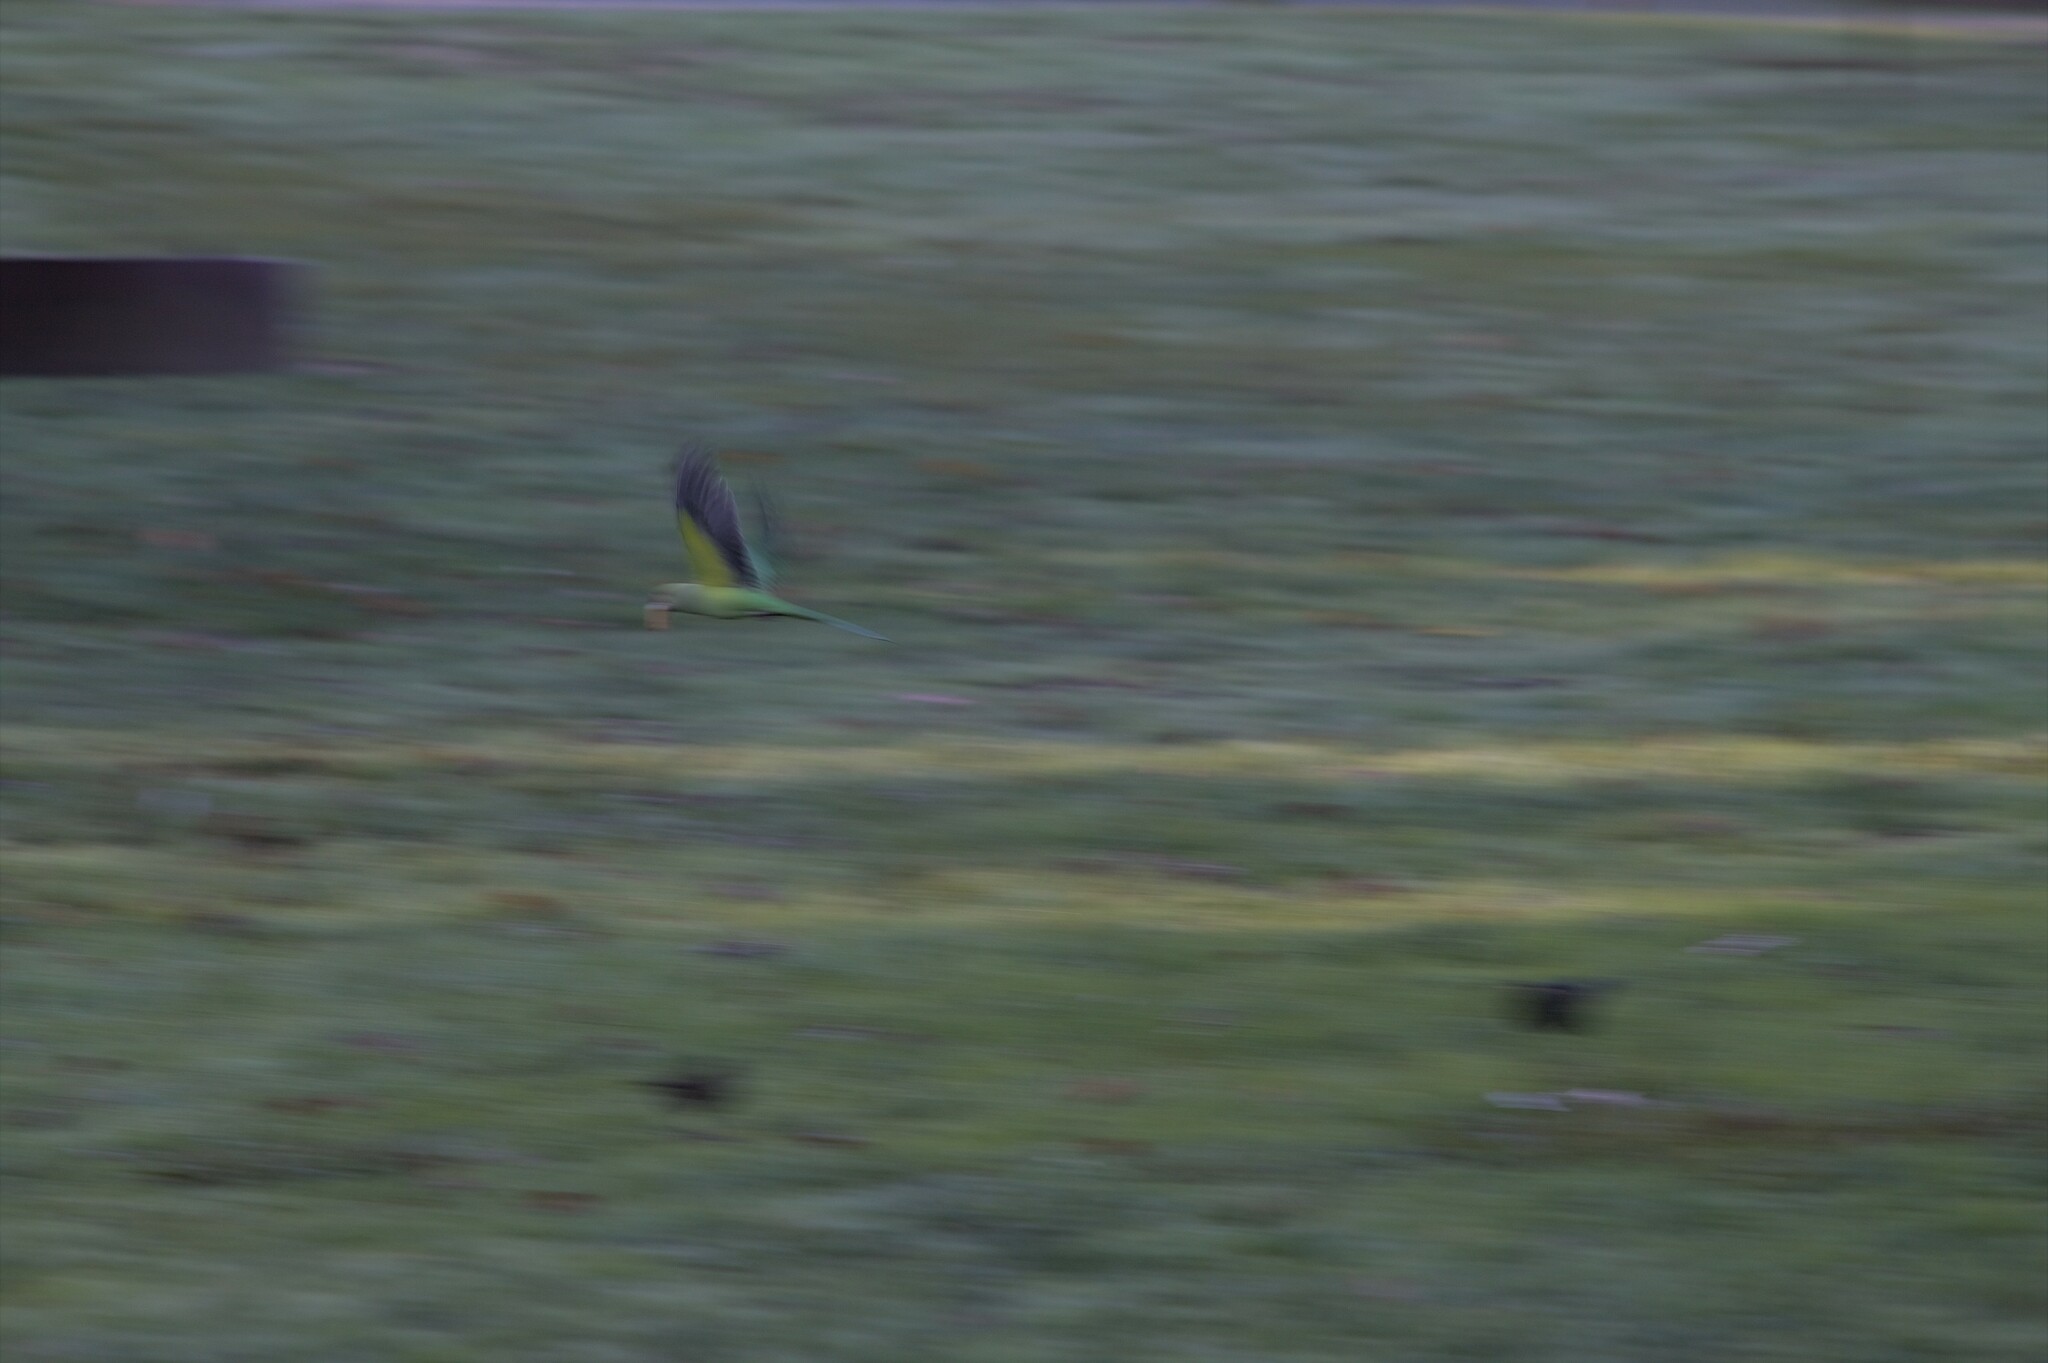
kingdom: Animalia
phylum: Chordata
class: Aves
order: Psittaciformes
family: Psittacidae
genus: Myiopsitta
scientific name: Myiopsitta monachus
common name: Monk parakeet
